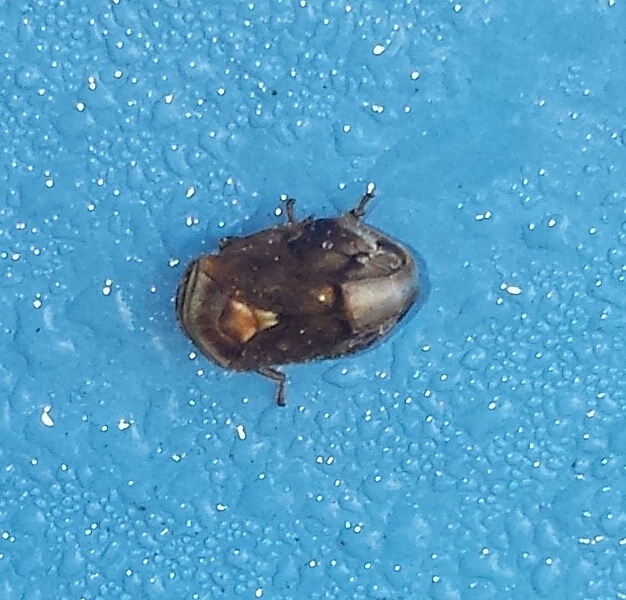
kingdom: Animalia
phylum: Arthropoda
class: Insecta
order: Hemiptera
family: Clastopteridae
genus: Clastoptera
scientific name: Clastoptera obtusa
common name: Alder spittlebug
